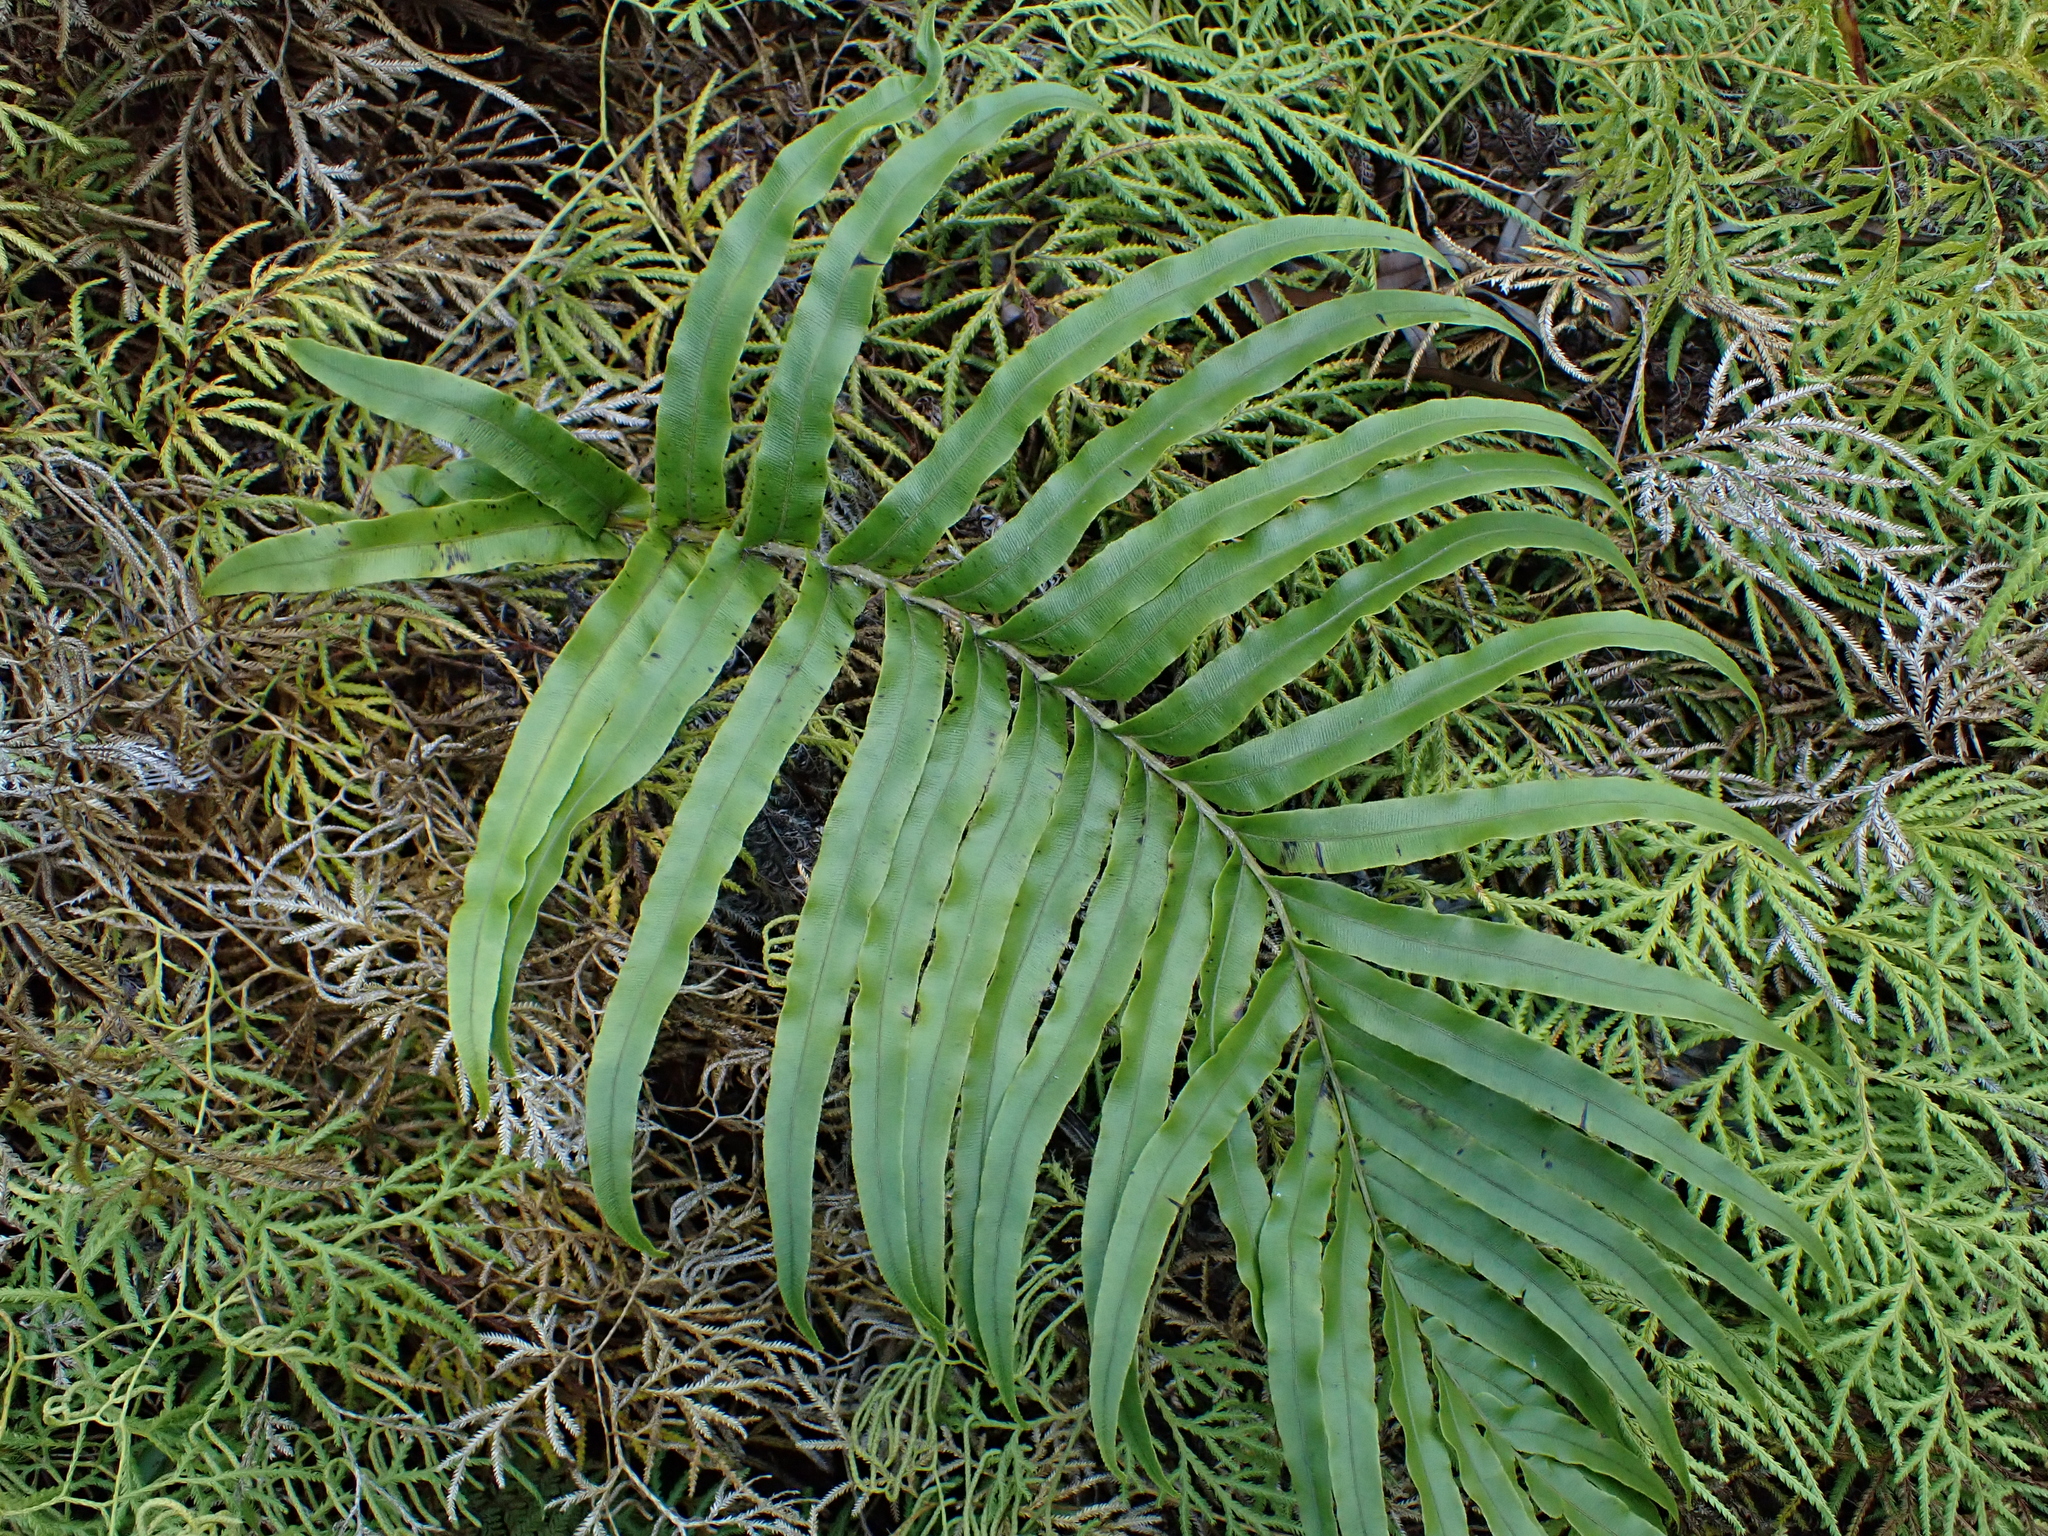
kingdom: Plantae
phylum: Tracheophyta
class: Polypodiopsida
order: Polypodiales
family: Blechnaceae
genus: Parablechnum
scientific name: Parablechnum novae-zelandiae
